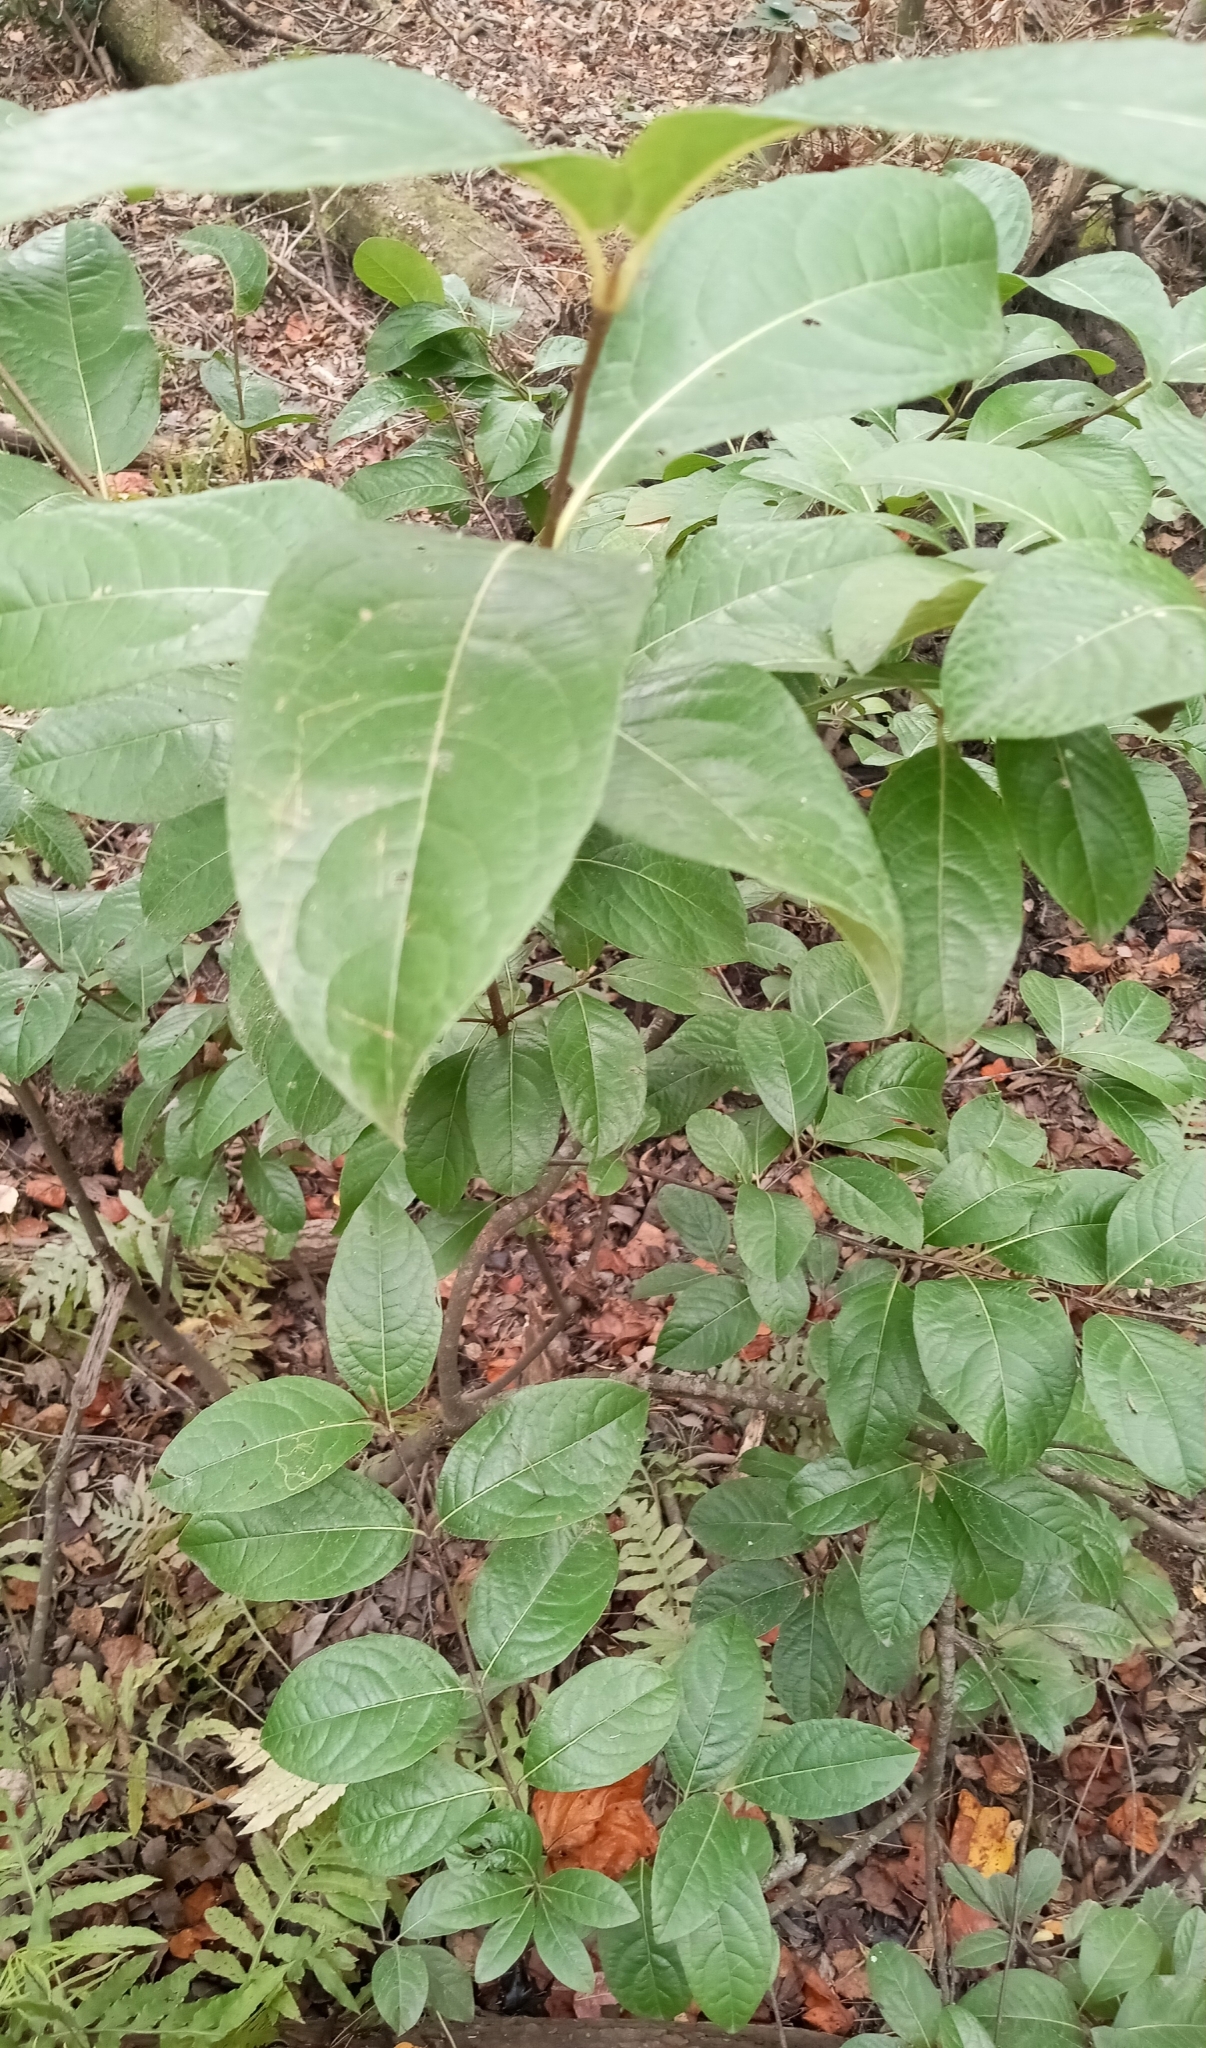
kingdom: Plantae
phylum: Tracheophyta
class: Magnoliopsida
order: Dipsacales
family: Viburnaceae
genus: Viburnum
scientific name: Viburnum nudum
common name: Possum haw
